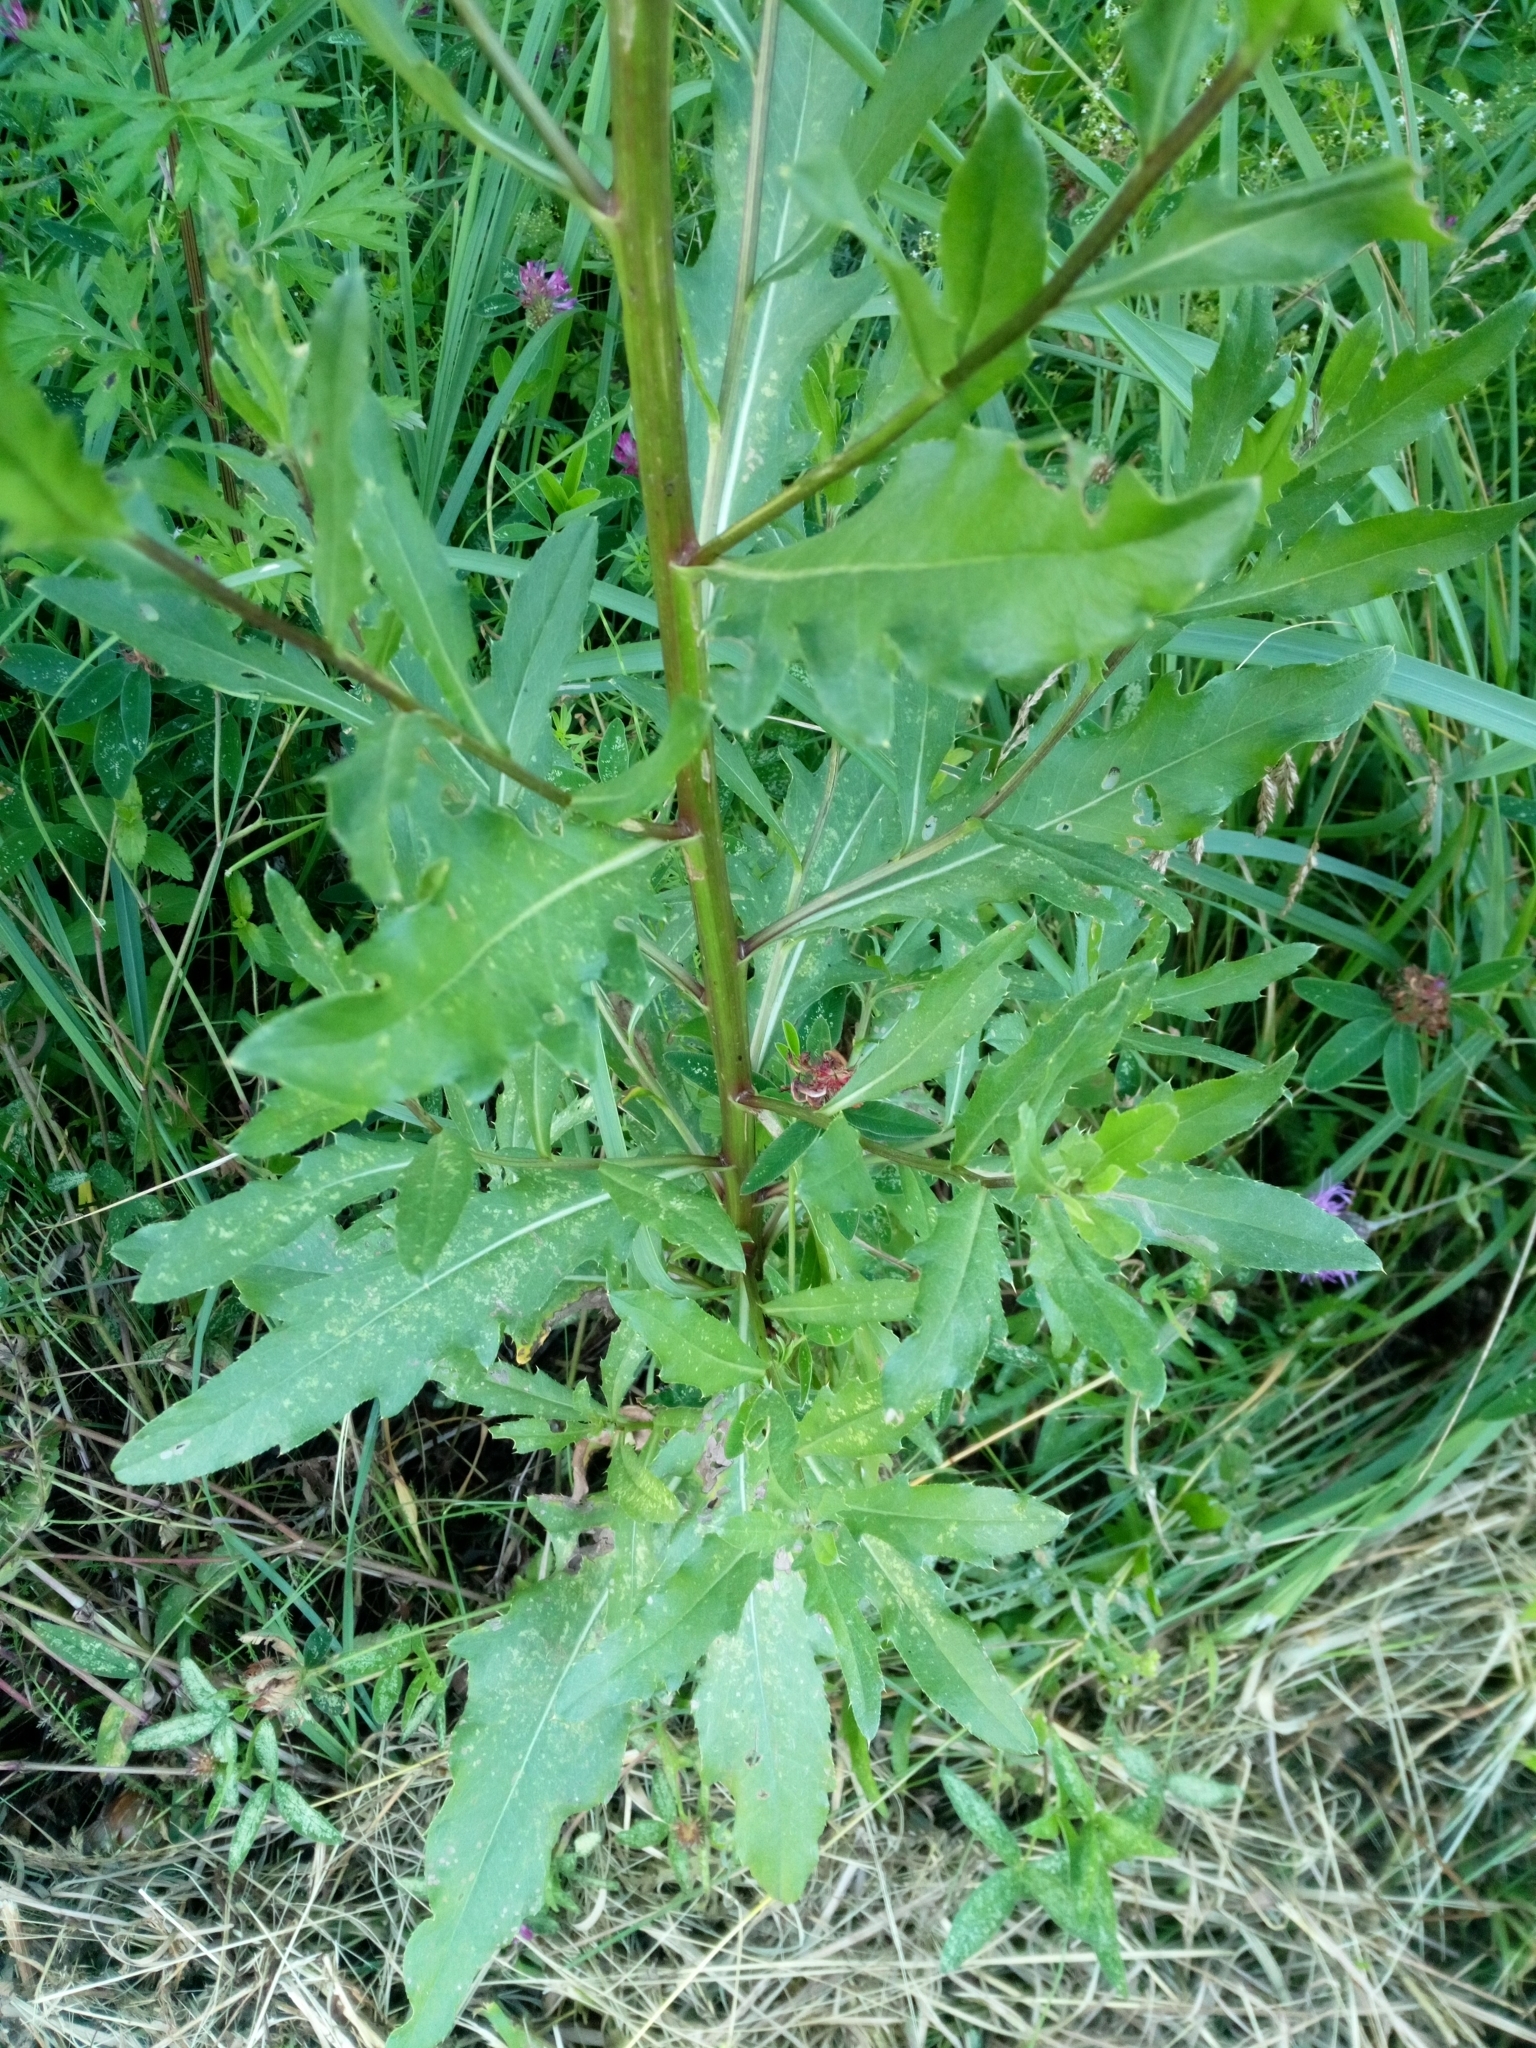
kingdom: Plantae
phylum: Tracheophyta
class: Magnoliopsida
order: Asterales
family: Asteraceae
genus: Cirsium
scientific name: Cirsium arvense
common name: Creeping thistle
